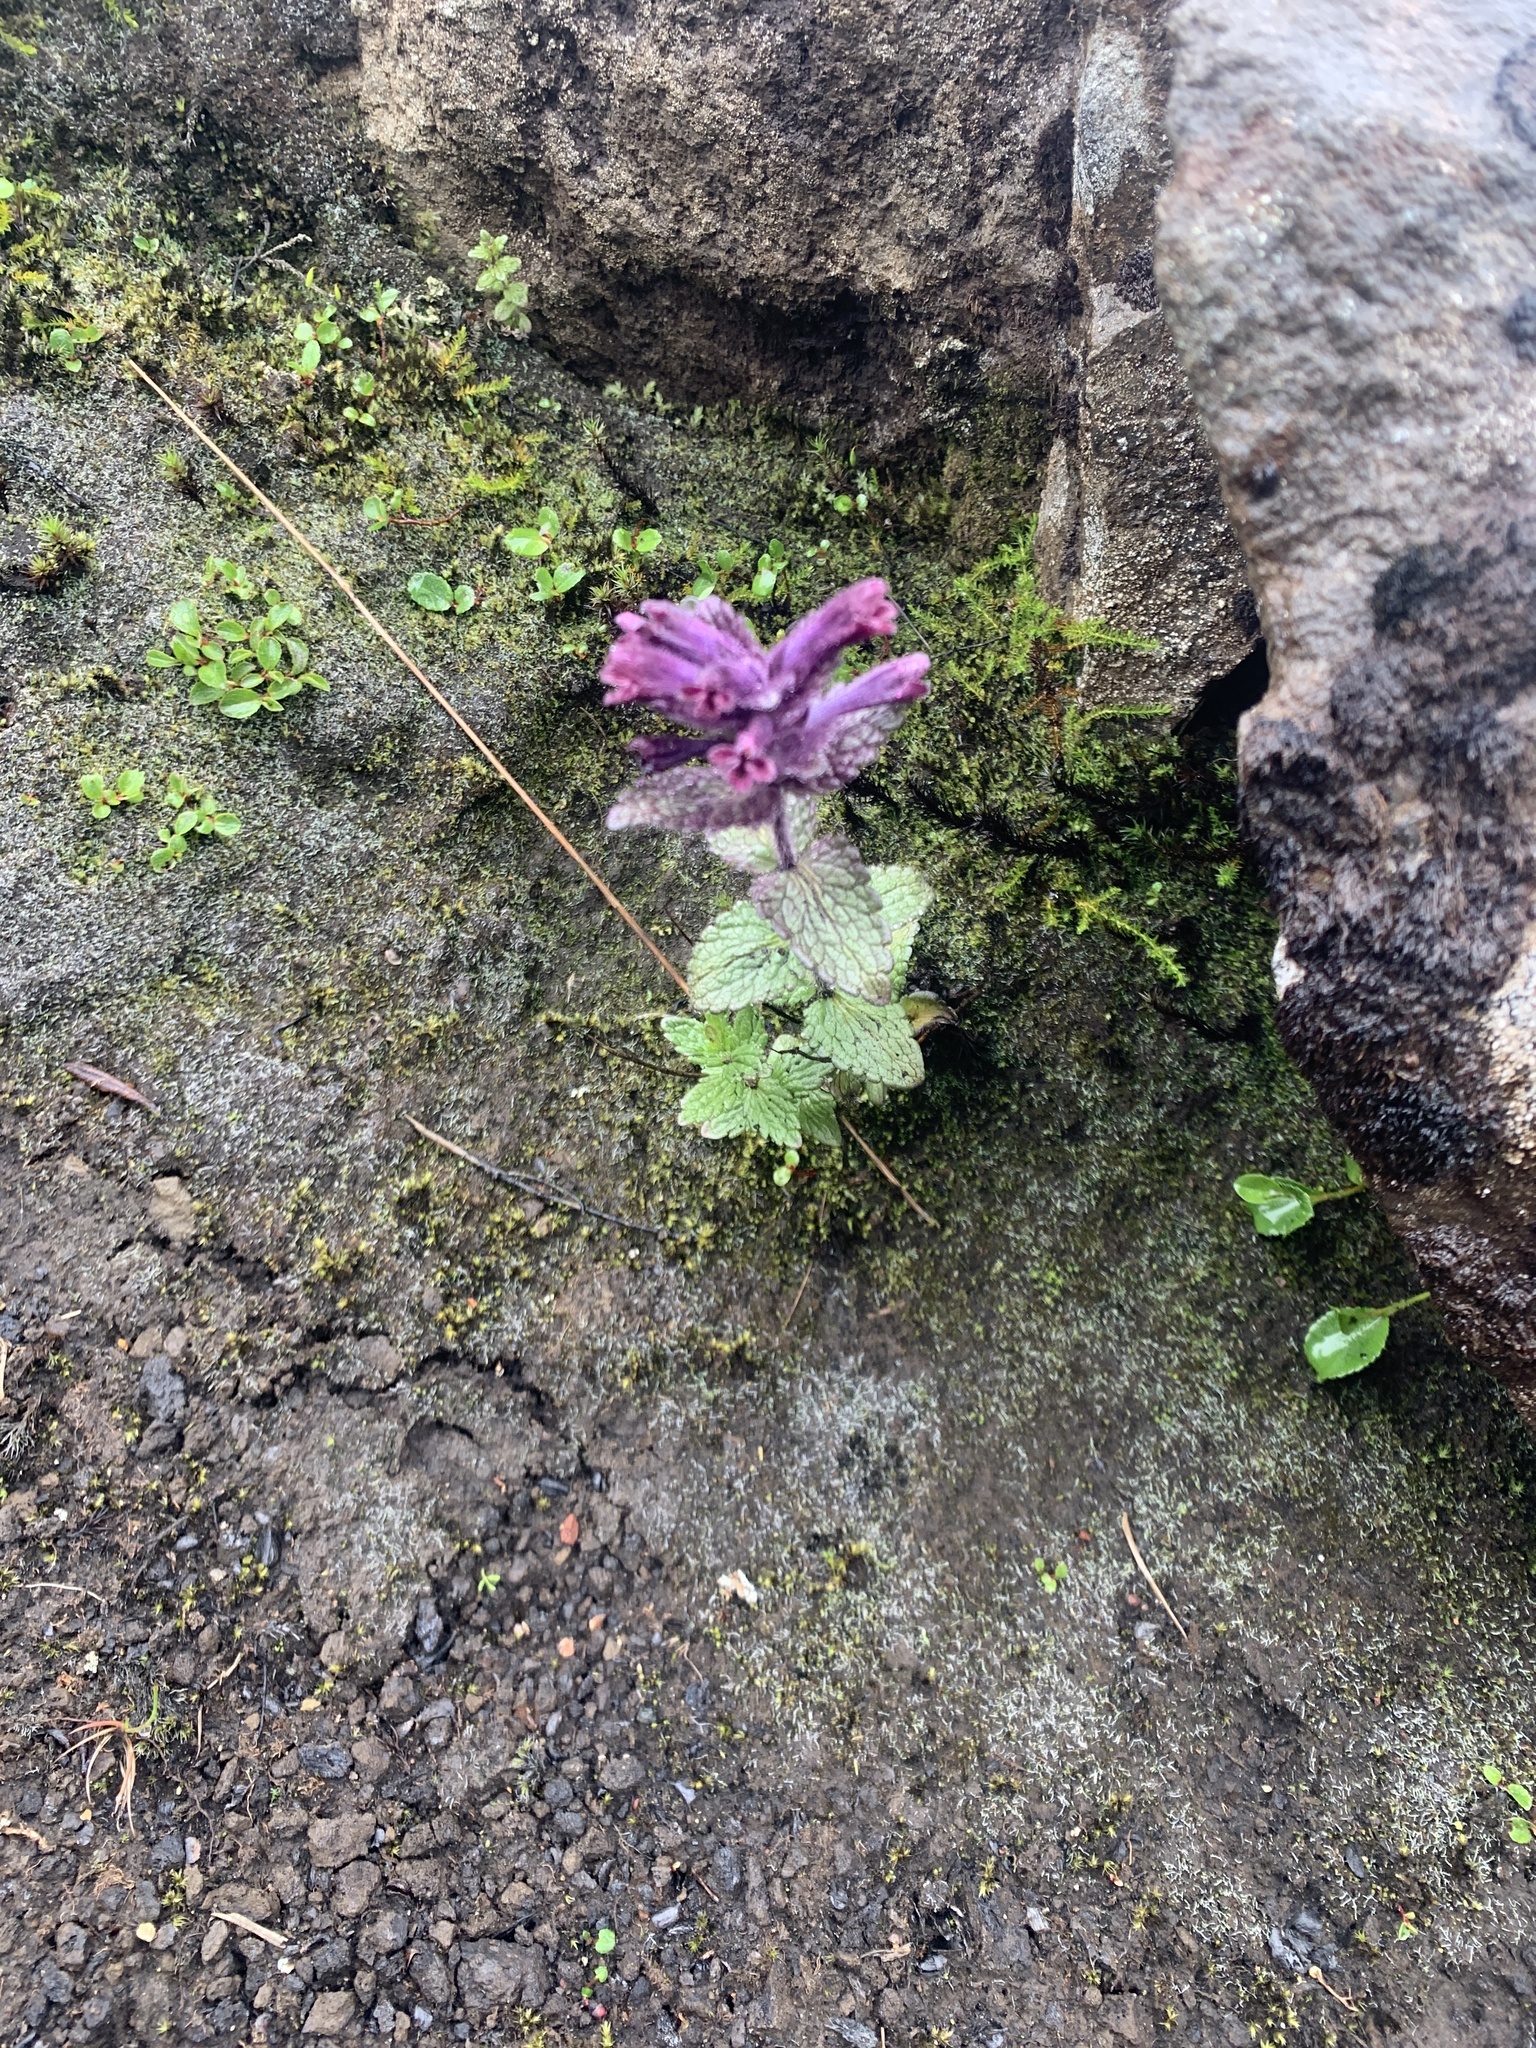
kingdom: Plantae
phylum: Tracheophyta
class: Magnoliopsida
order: Lamiales
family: Orobanchaceae
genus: Bartsia
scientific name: Bartsia alpina
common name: Alpine bartsia
